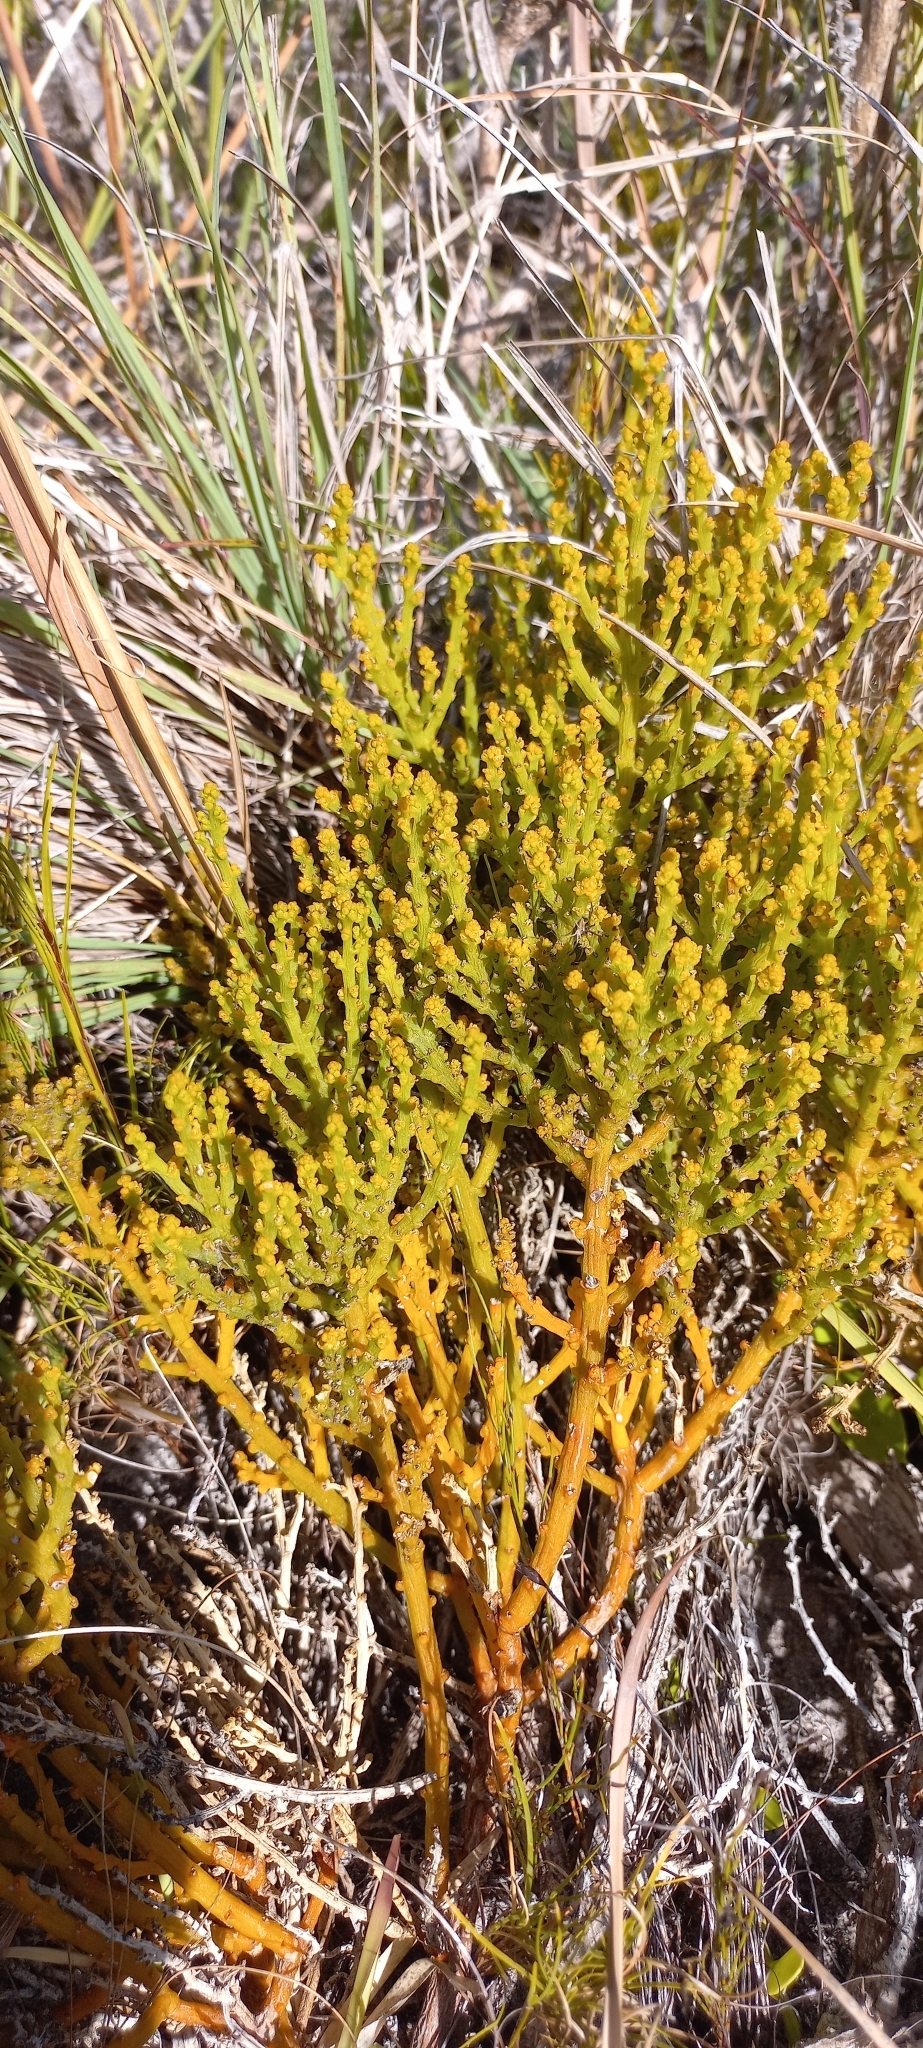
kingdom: Plantae
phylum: Tracheophyta
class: Magnoliopsida
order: Santalales
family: Thesiaceae
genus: Thesium
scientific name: Thesium fragile
